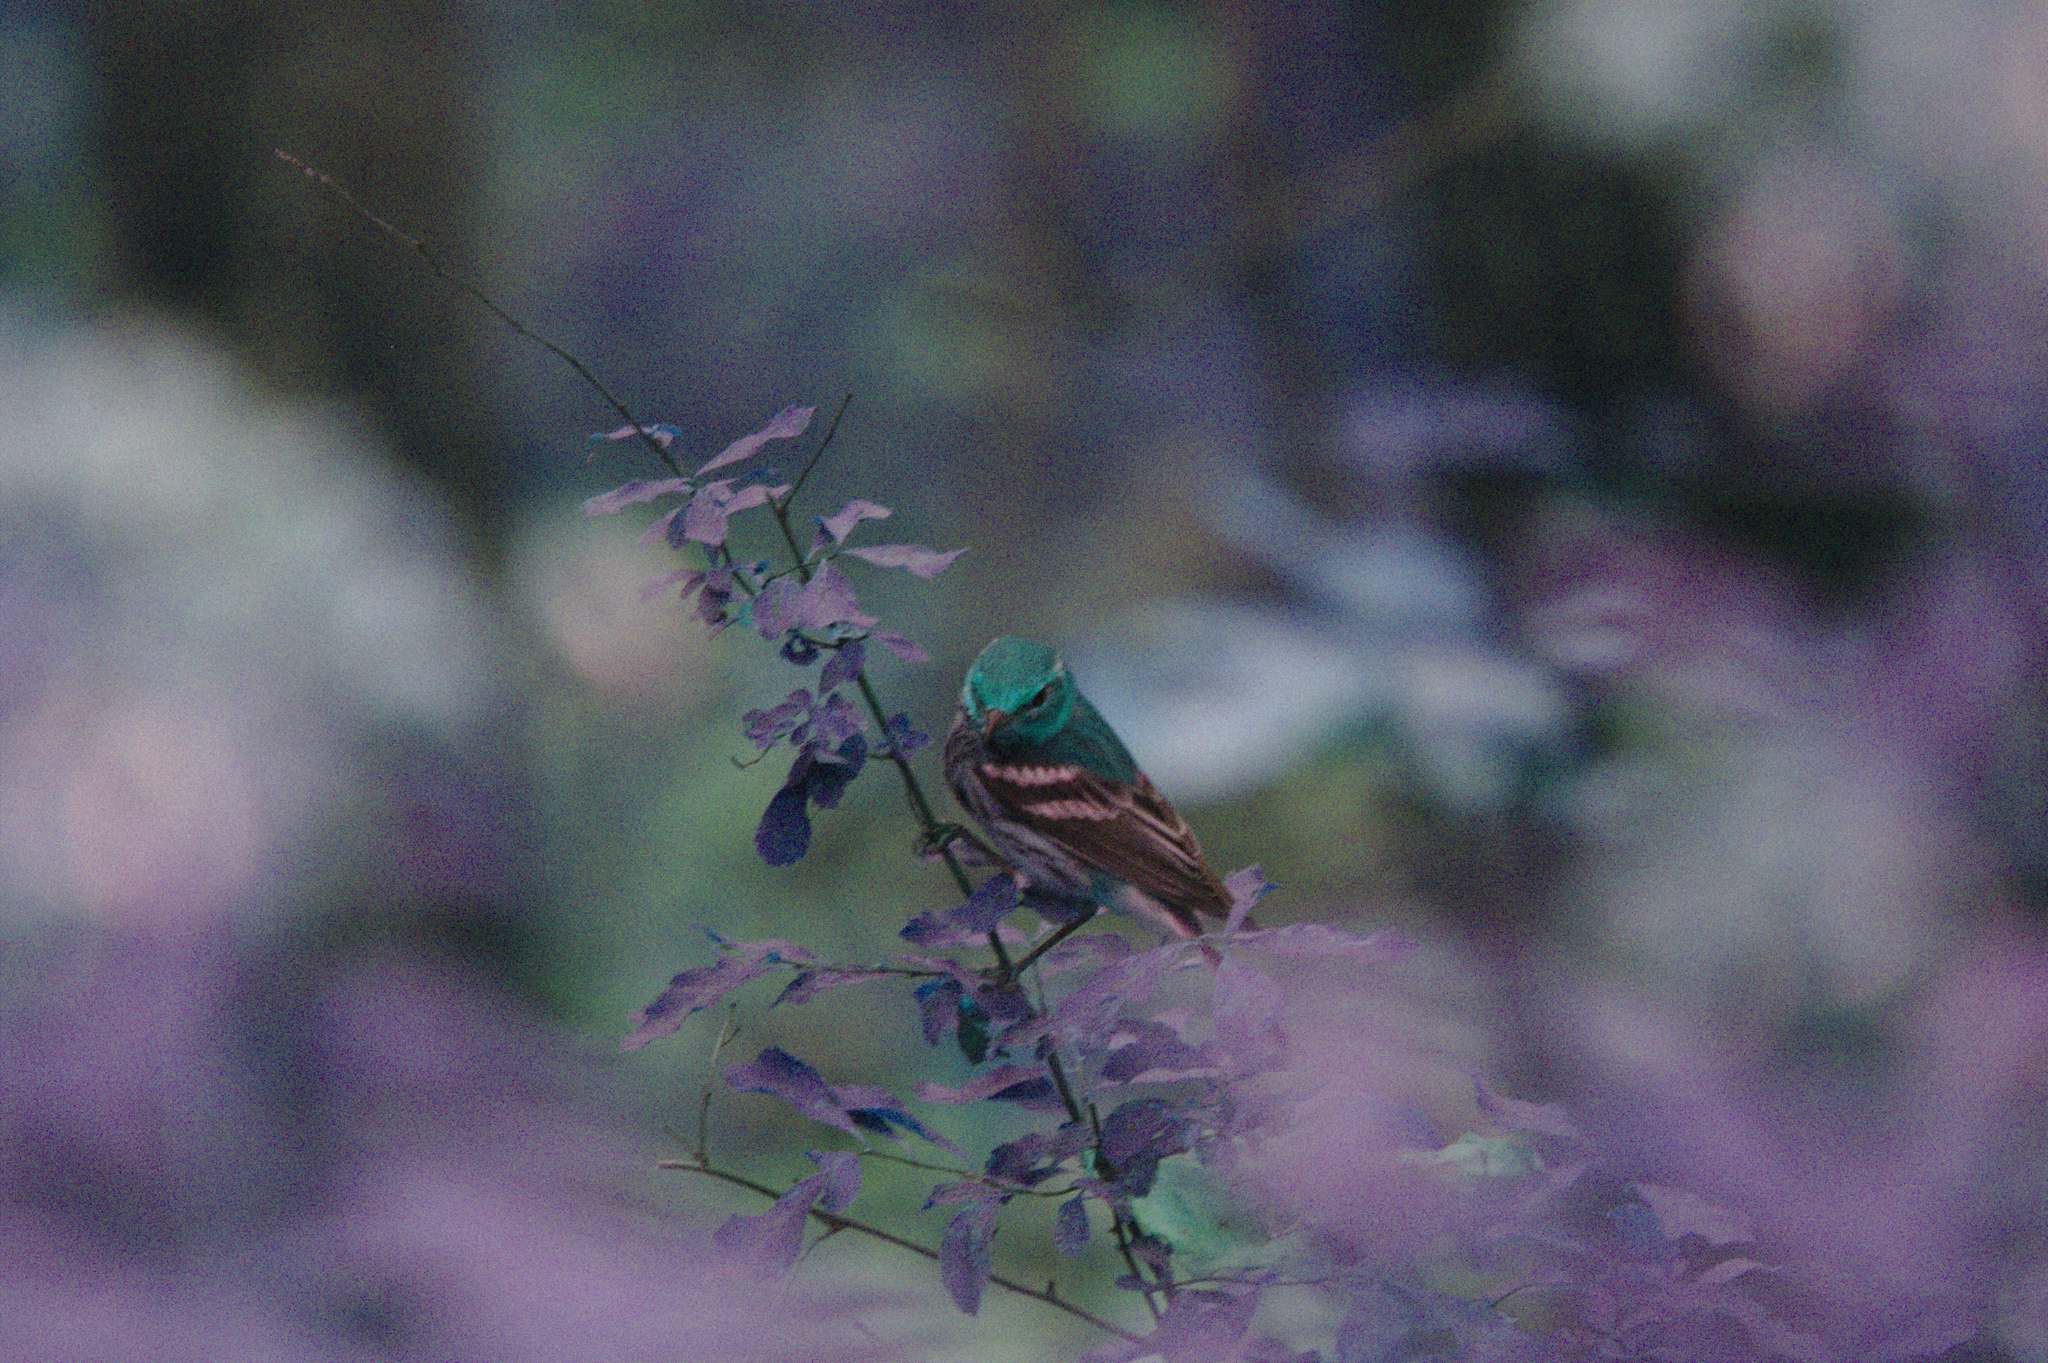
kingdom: Animalia
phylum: Chordata
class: Aves
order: Passeriformes
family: Parulidae
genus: Setophaga
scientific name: Setophaga virens
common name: Black-throated green warbler
